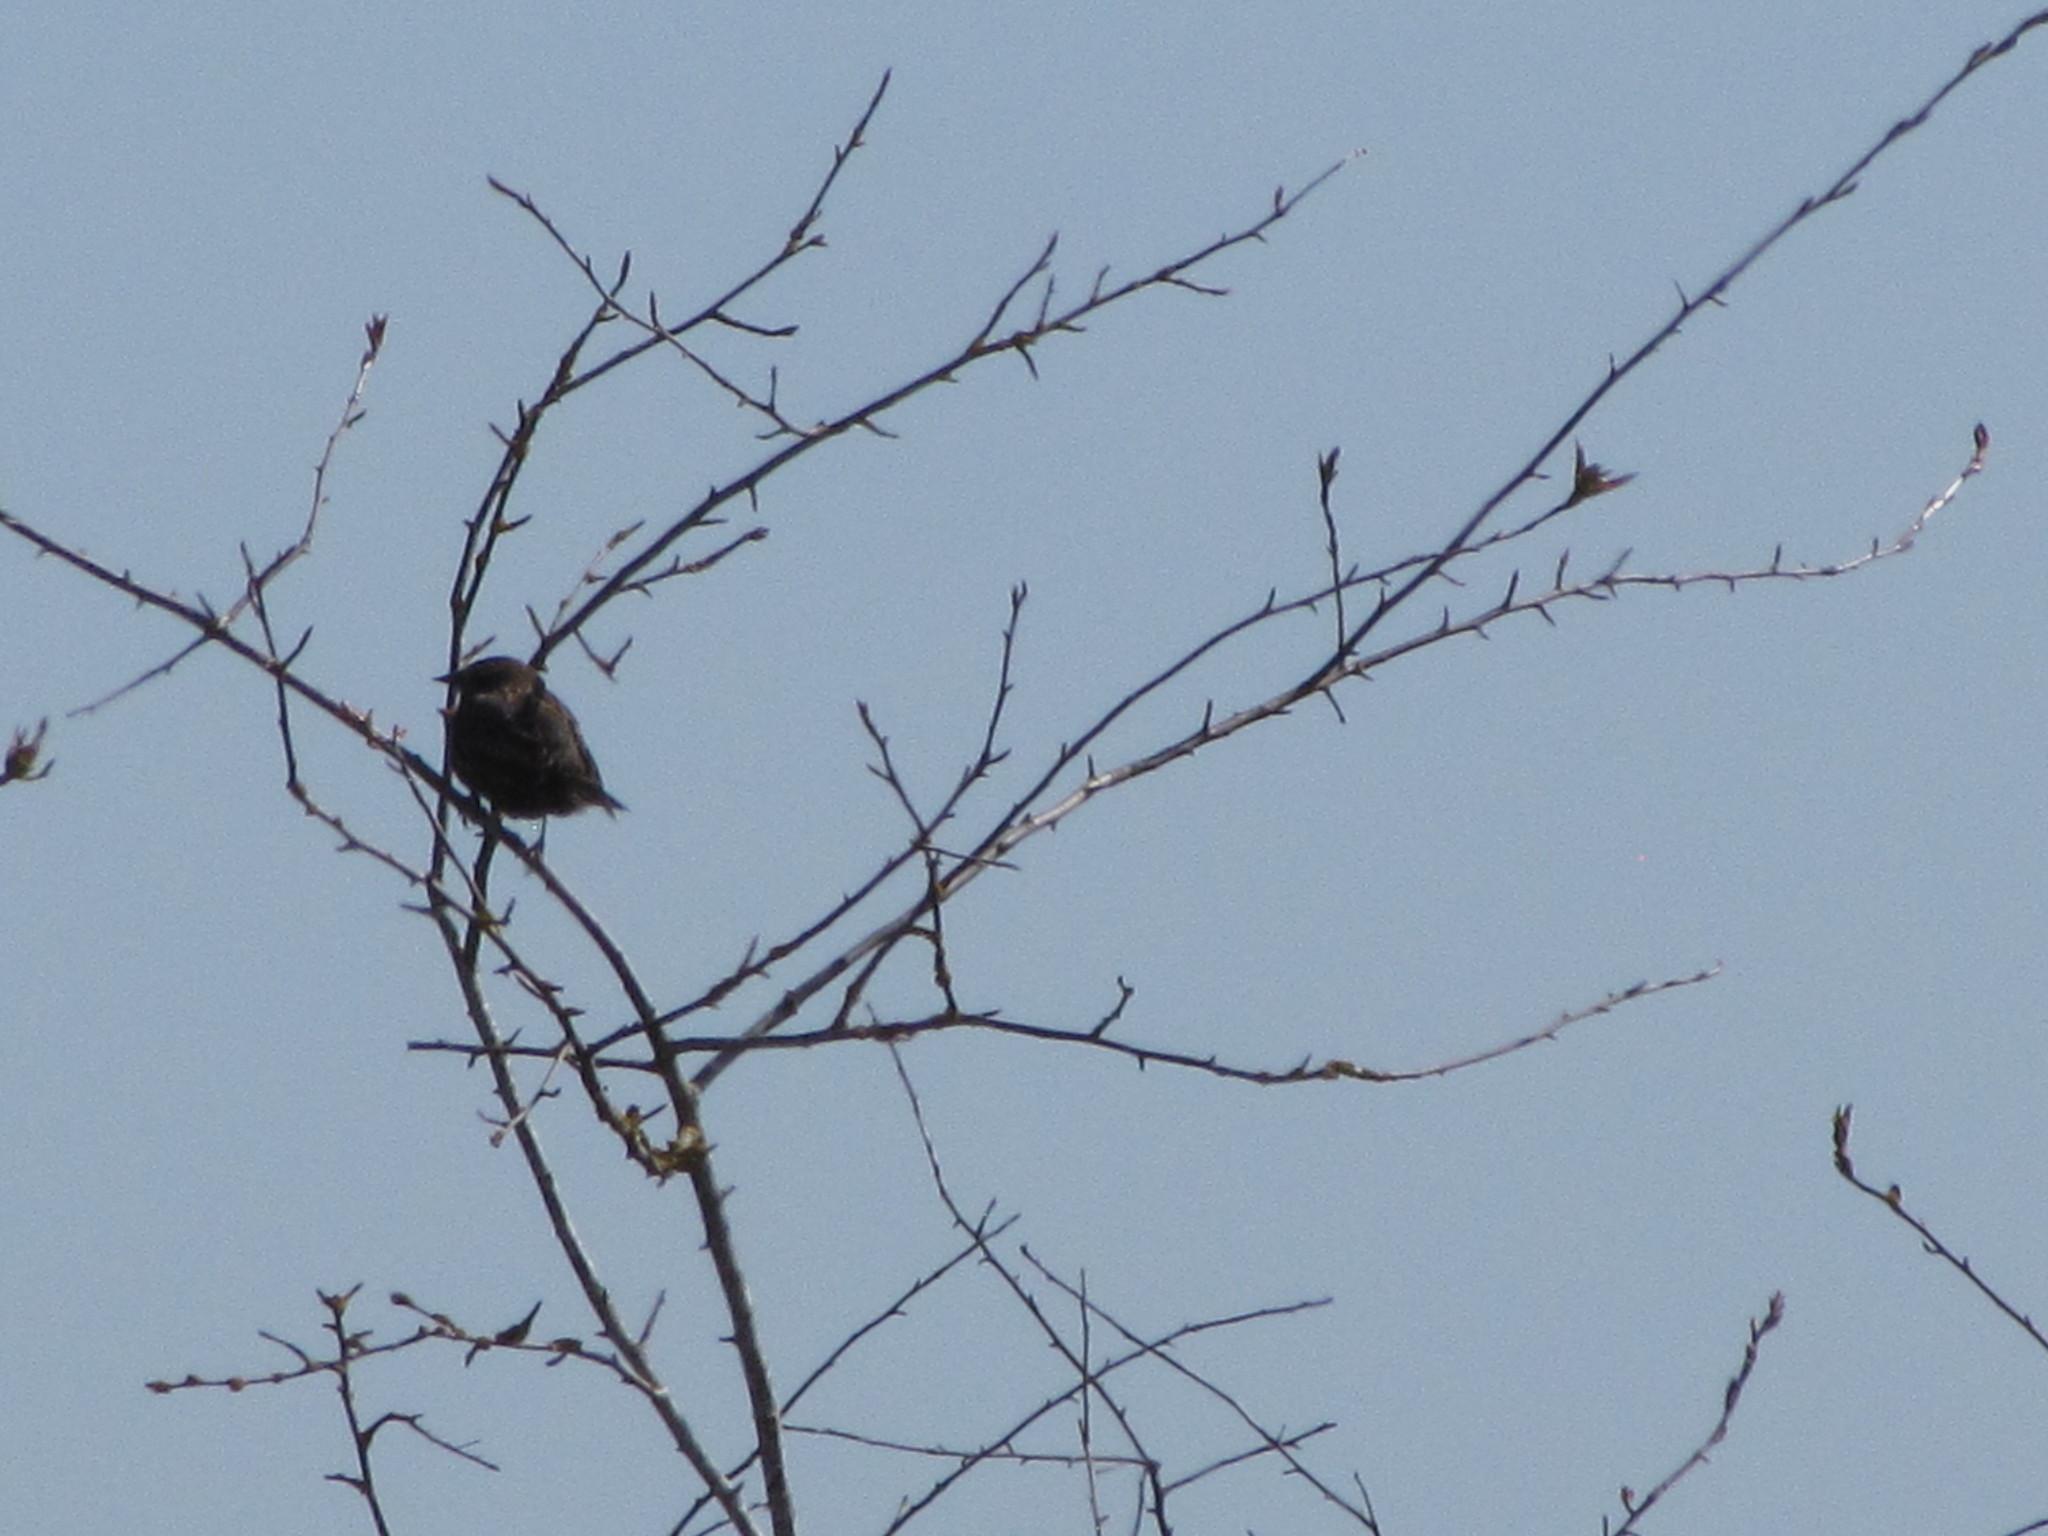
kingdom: Animalia
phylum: Chordata
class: Aves
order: Passeriformes
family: Icteridae
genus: Agelaius
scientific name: Agelaius phoeniceus
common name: Red-winged blackbird
